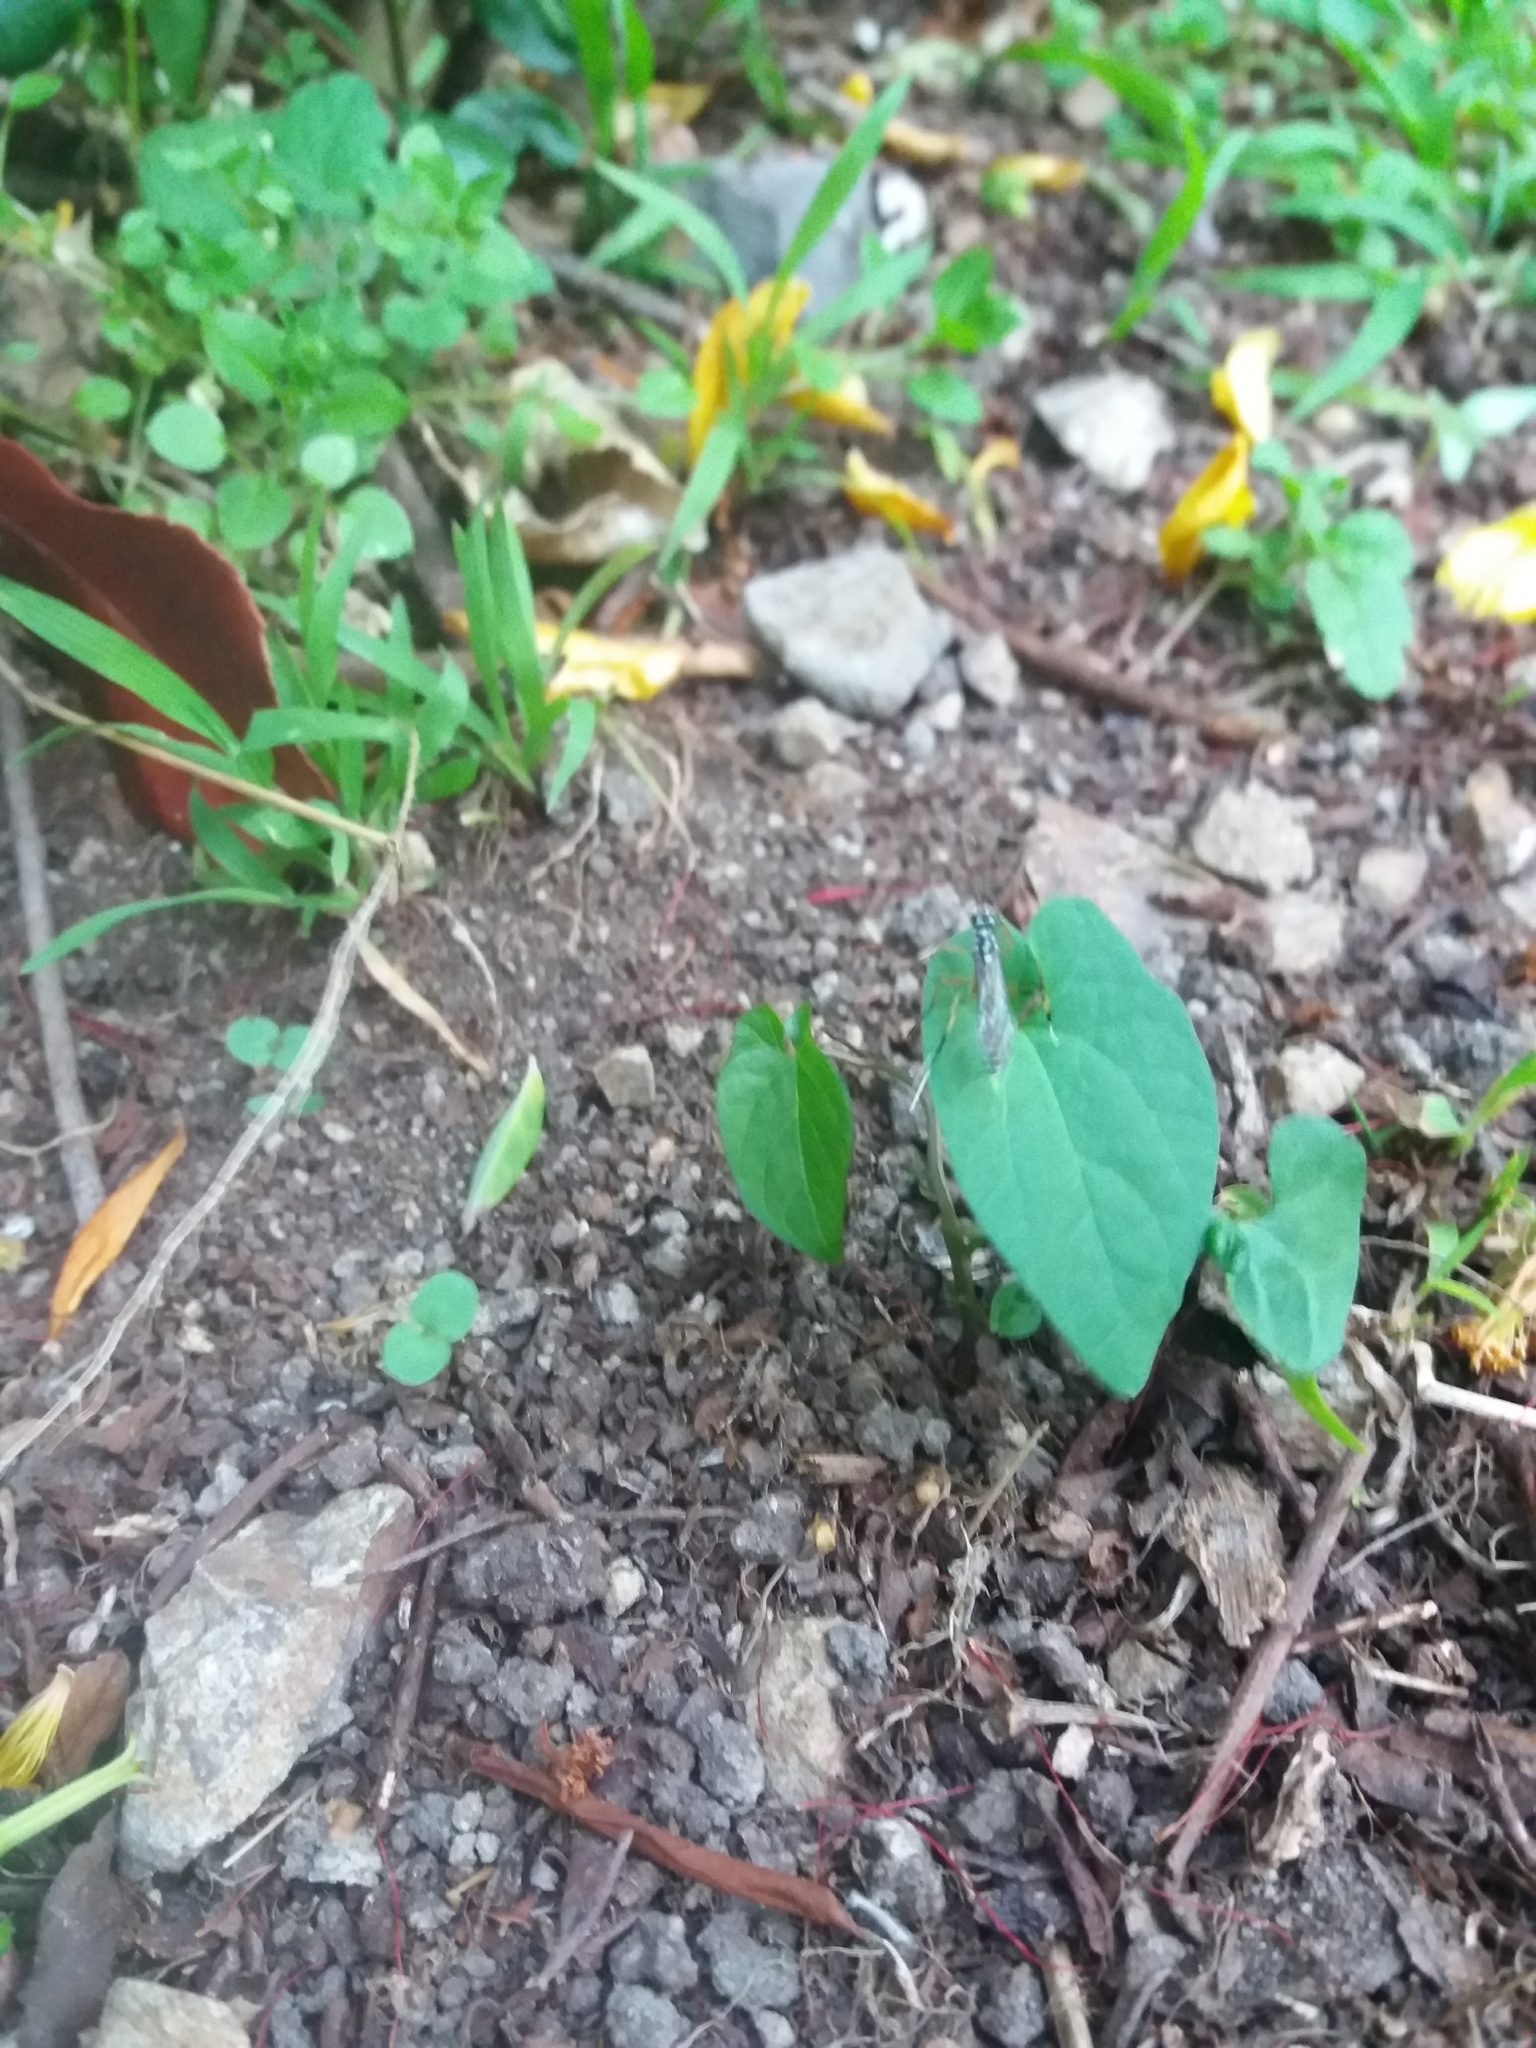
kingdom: Animalia
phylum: Arthropoda
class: Insecta
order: Hymenoptera
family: Ichneumonidae
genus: Xanthocryptus
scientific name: Xanthocryptus novozealandicus
